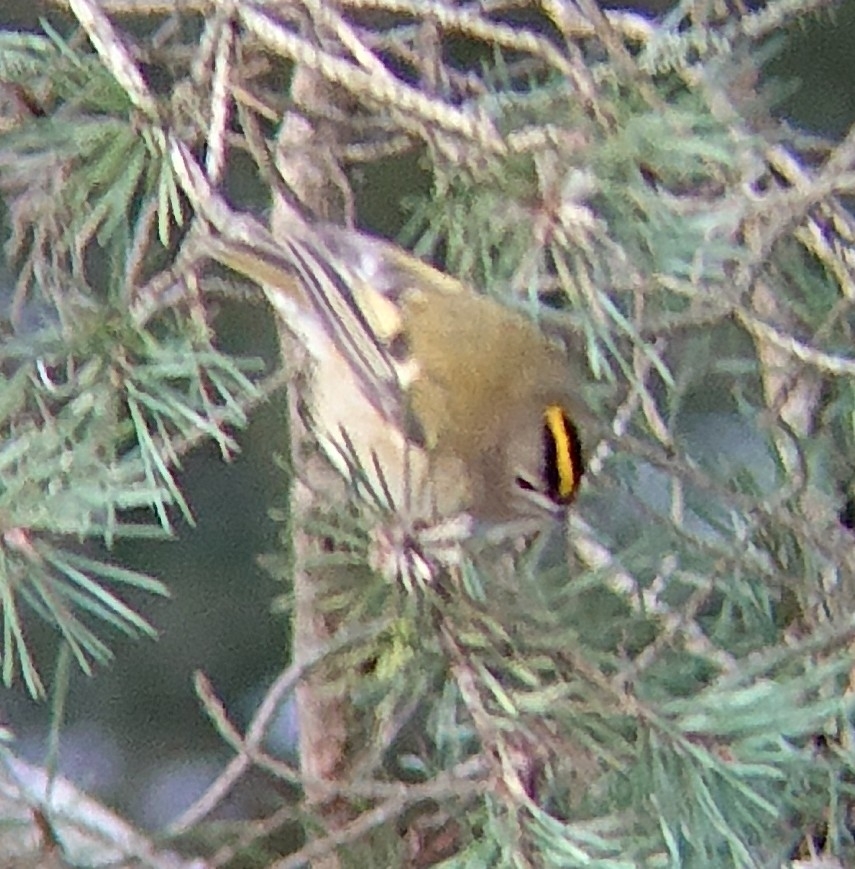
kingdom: Animalia
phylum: Chordata
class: Aves
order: Passeriformes
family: Regulidae
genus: Regulus
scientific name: Regulus regulus
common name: Goldcrest
